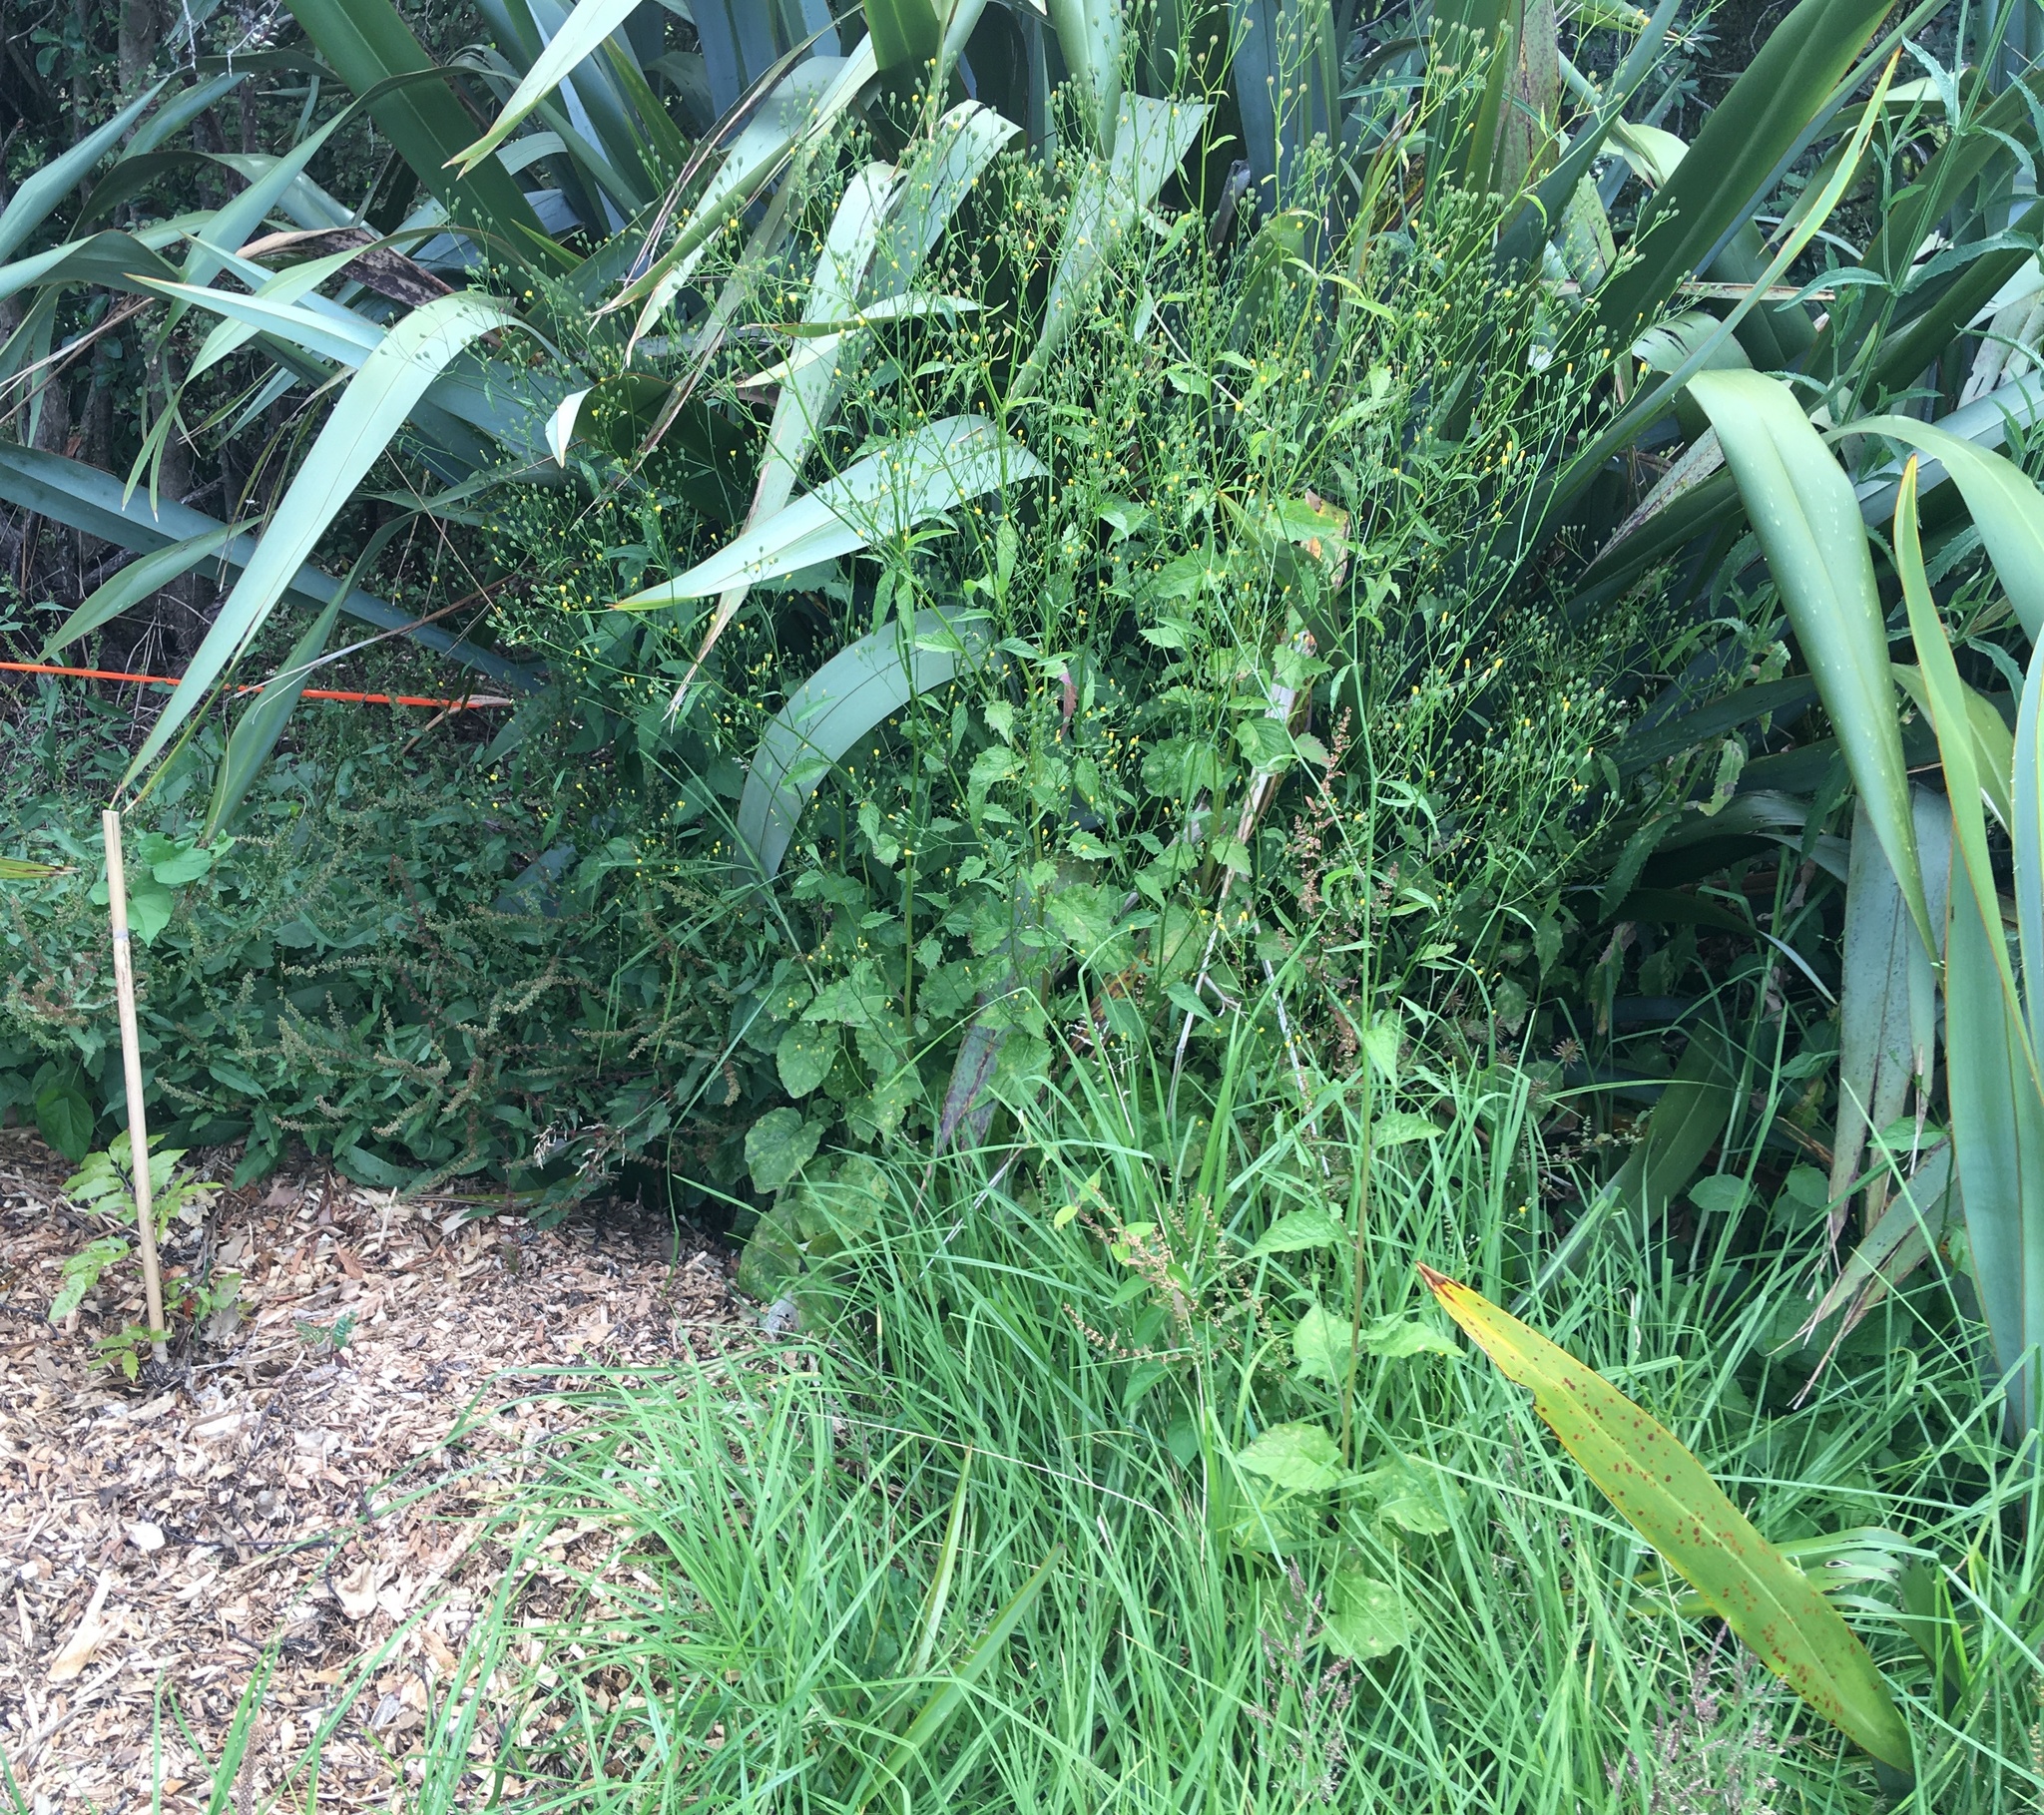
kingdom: Plantae
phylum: Tracheophyta
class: Magnoliopsida
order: Asterales
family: Asteraceae
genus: Lapsana
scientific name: Lapsana communis
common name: Nipplewort
